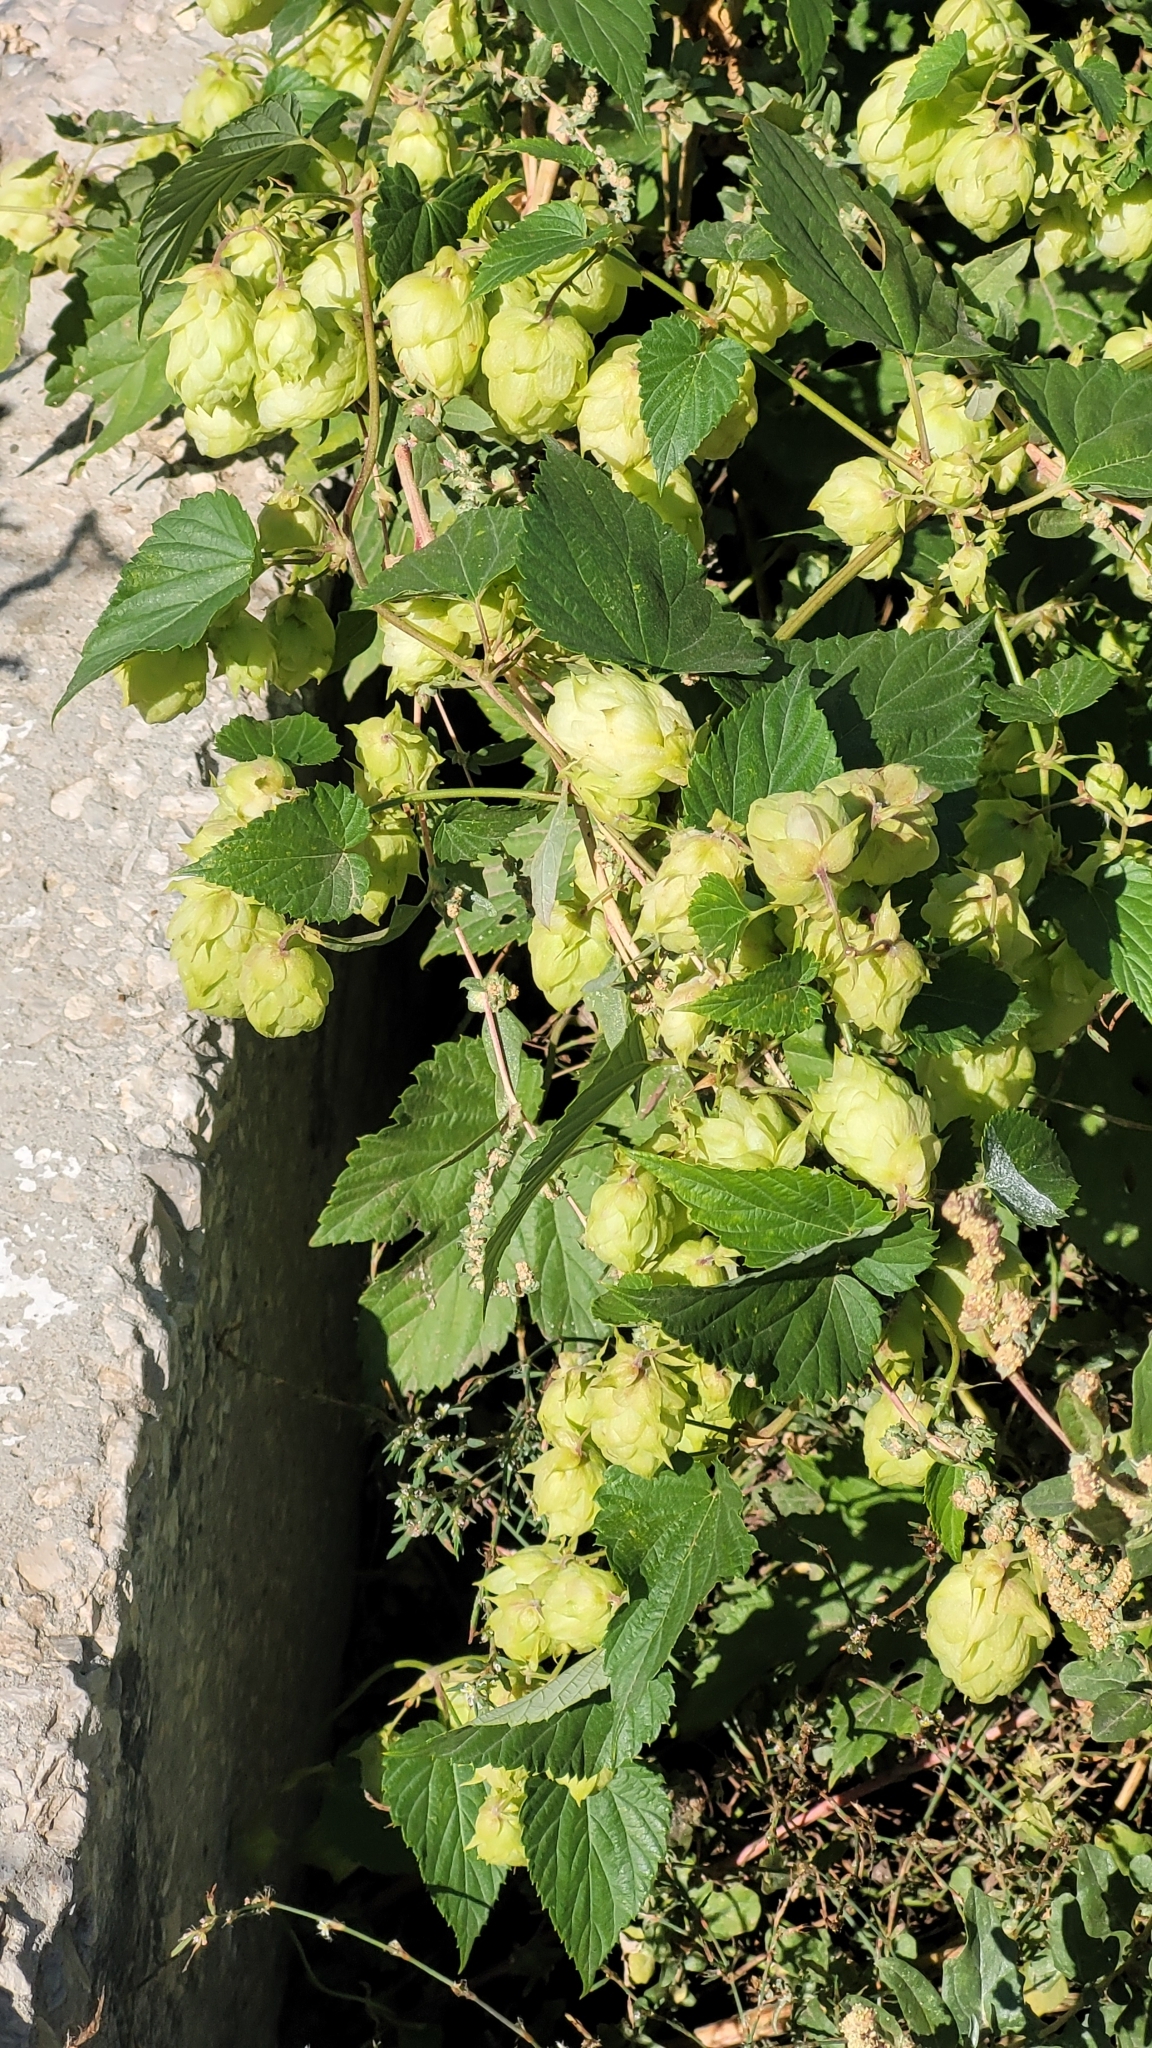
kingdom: Plantae
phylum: Tracheophyta
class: Magnoliopsida
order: Rosales
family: Cannabaceae
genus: Humulus
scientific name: Humulus lupulus
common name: Hop
